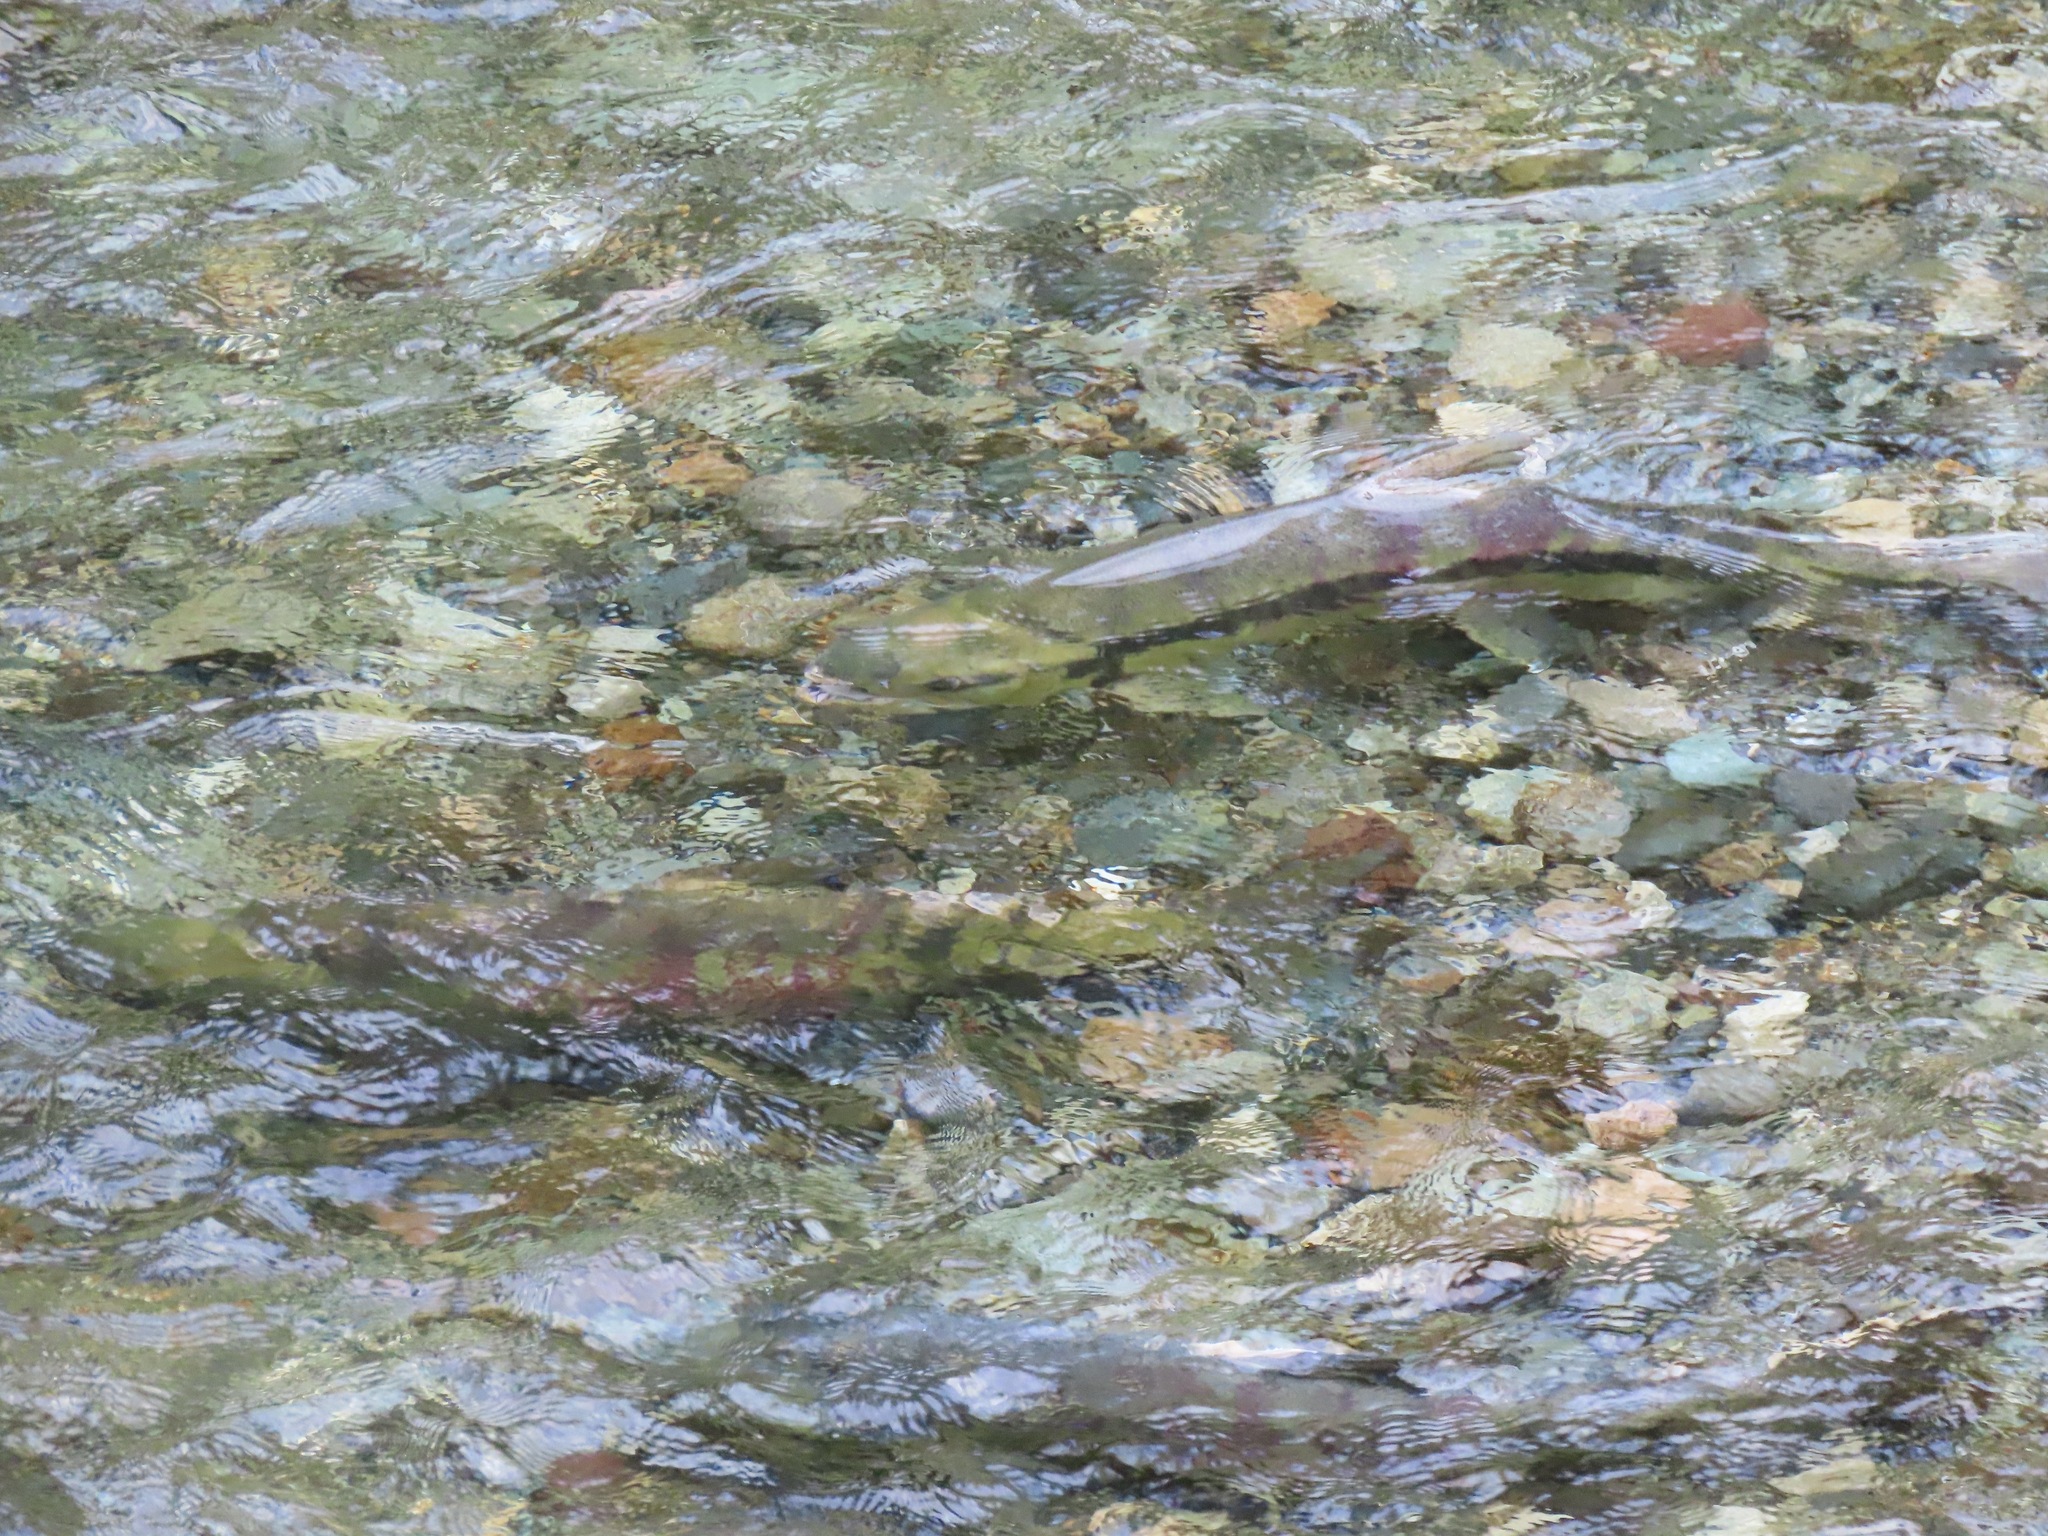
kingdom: Animalia
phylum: Chordata
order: Salmoniformes
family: Salmonidae
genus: Oncorhynchus
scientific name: Oncorhynchus keta
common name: Chum salmon
